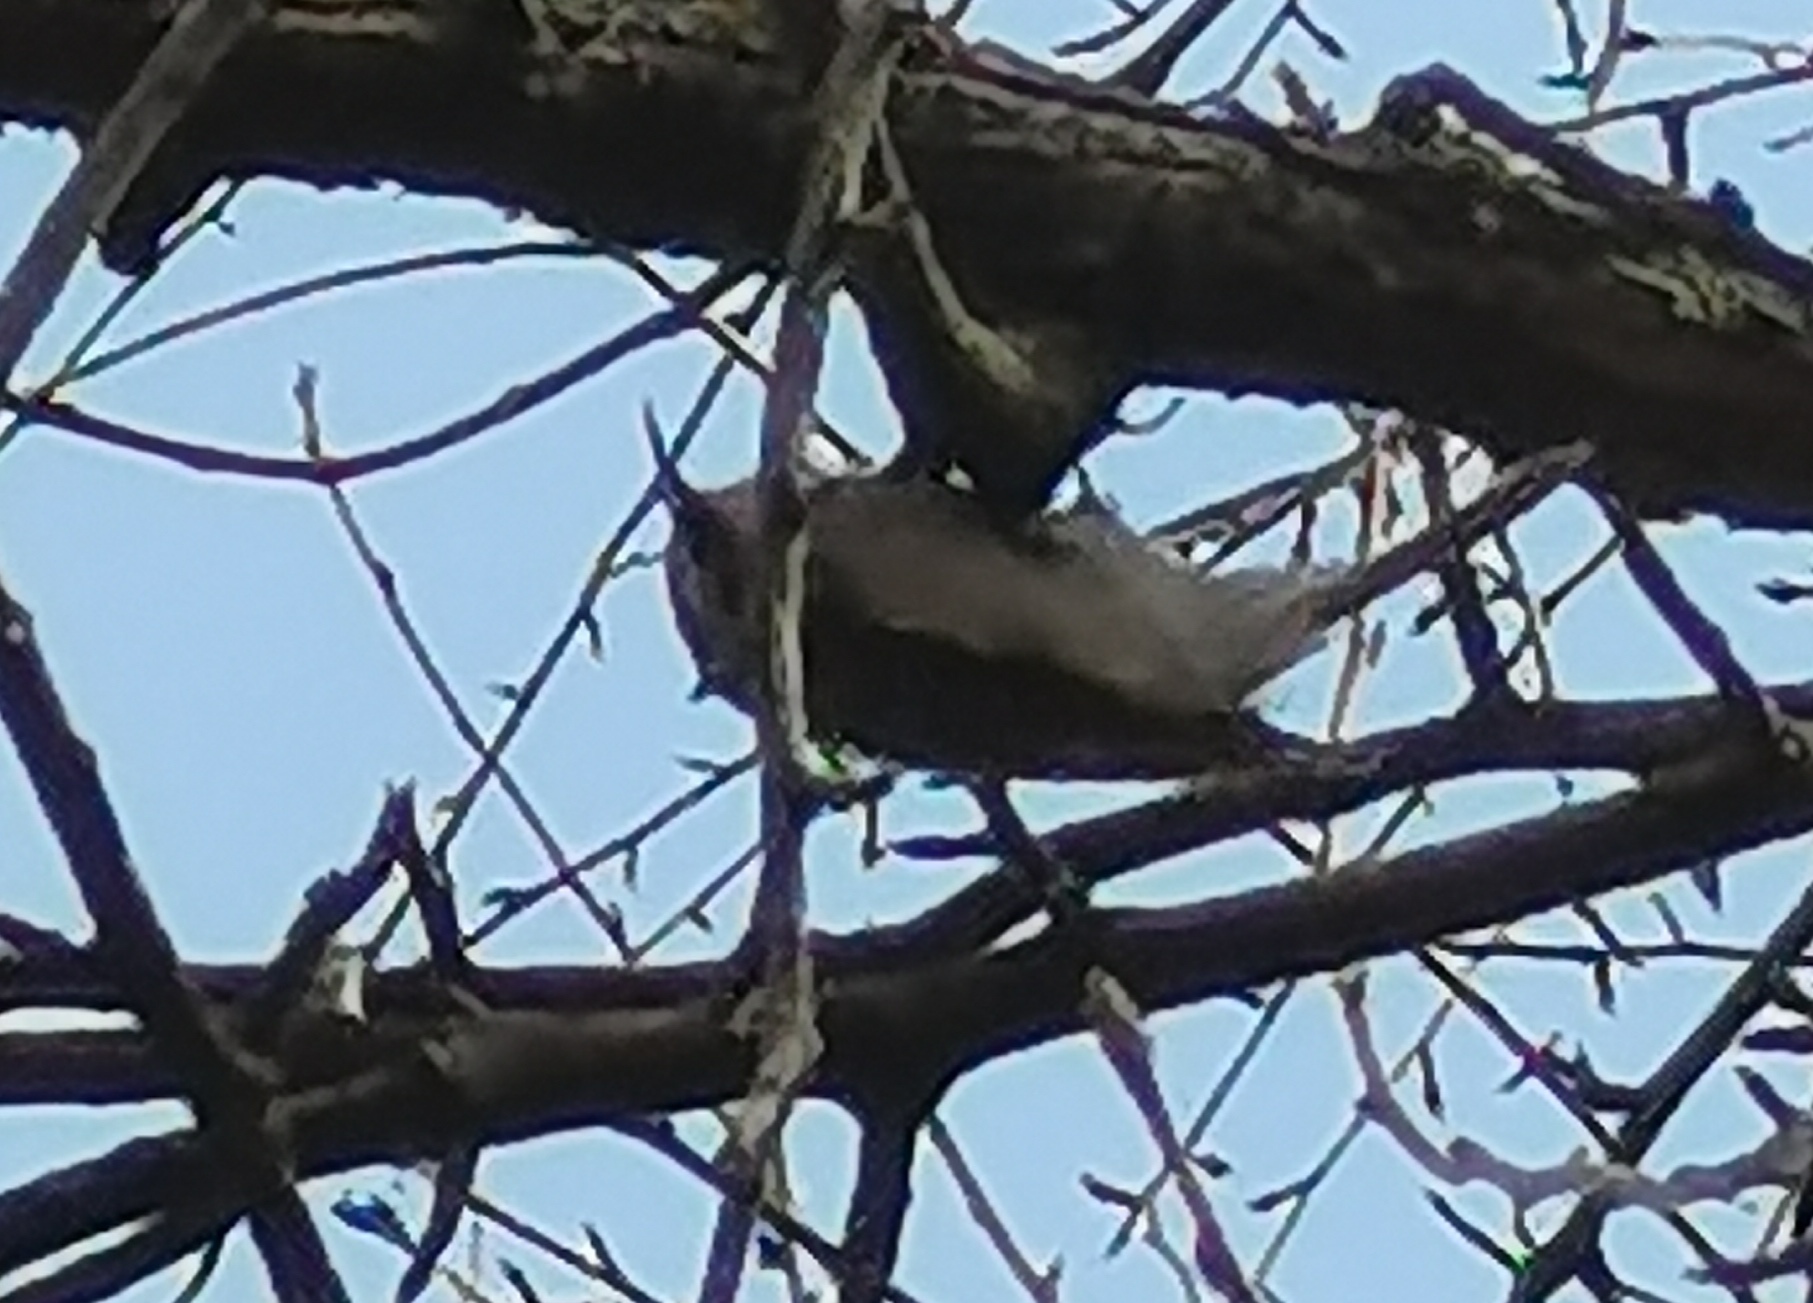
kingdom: Animalia
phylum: Chordata
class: Aves
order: Passeriformes
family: Certhiidae
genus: Certhia
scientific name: Certhia familiaris
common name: Eurasian treecreeper
